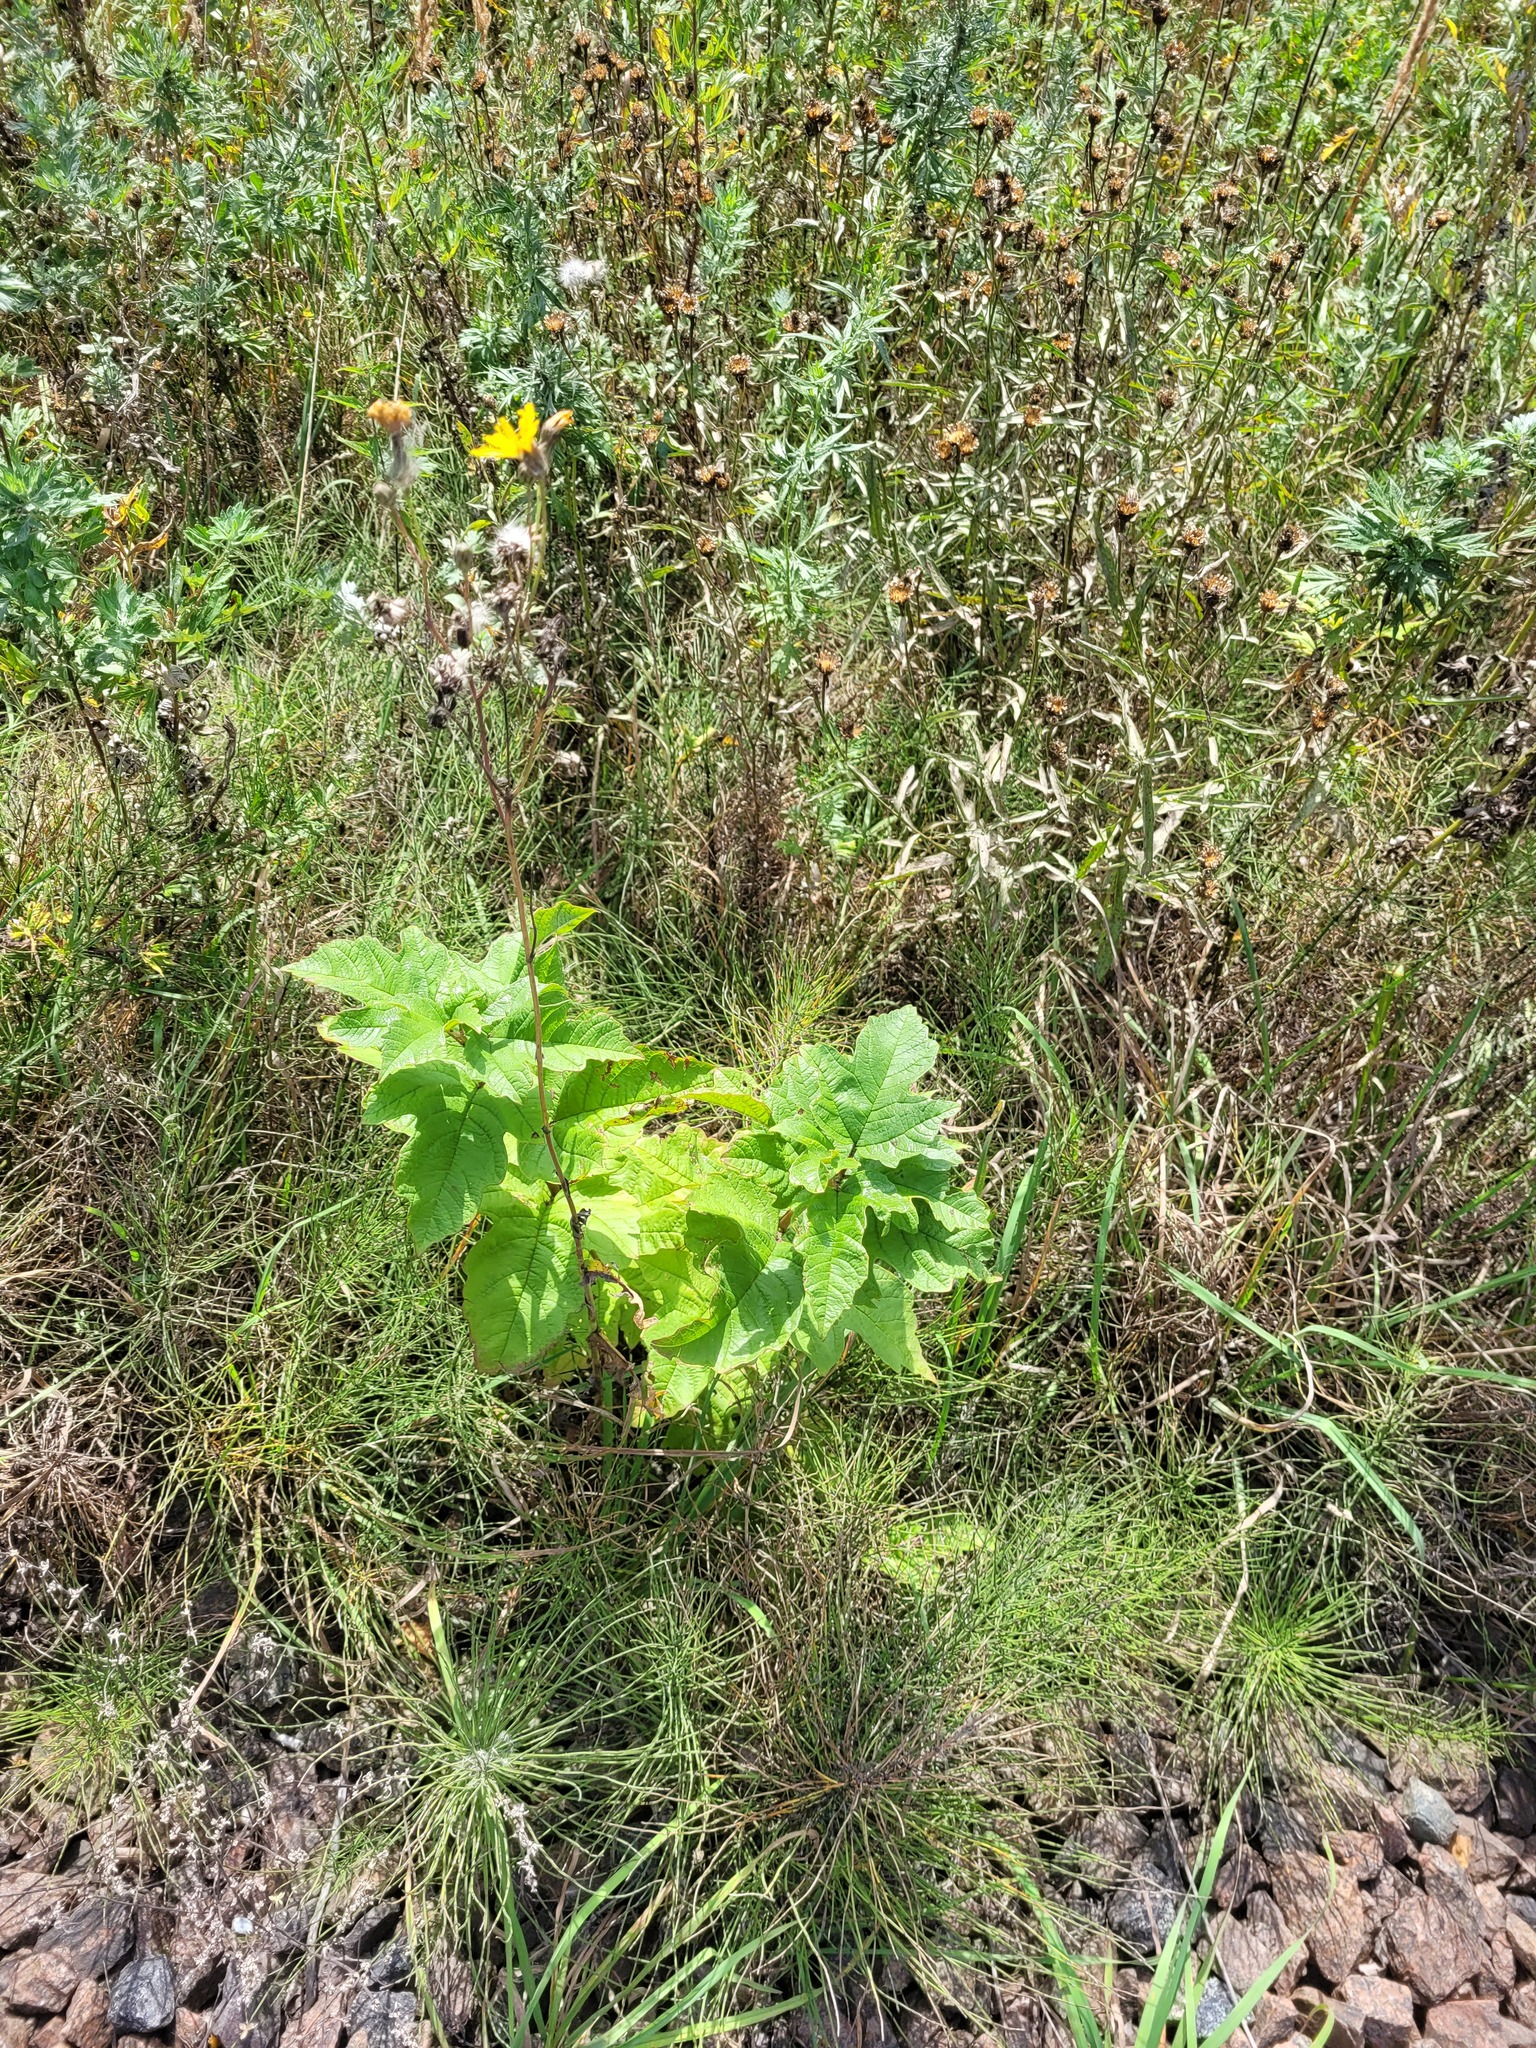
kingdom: Plantae
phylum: Tracheophyta
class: Magnoliopsida
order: Dipsacales
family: Viburnaceae
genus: Viburnum
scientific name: Viburnum opulus
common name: Guelder-rose
